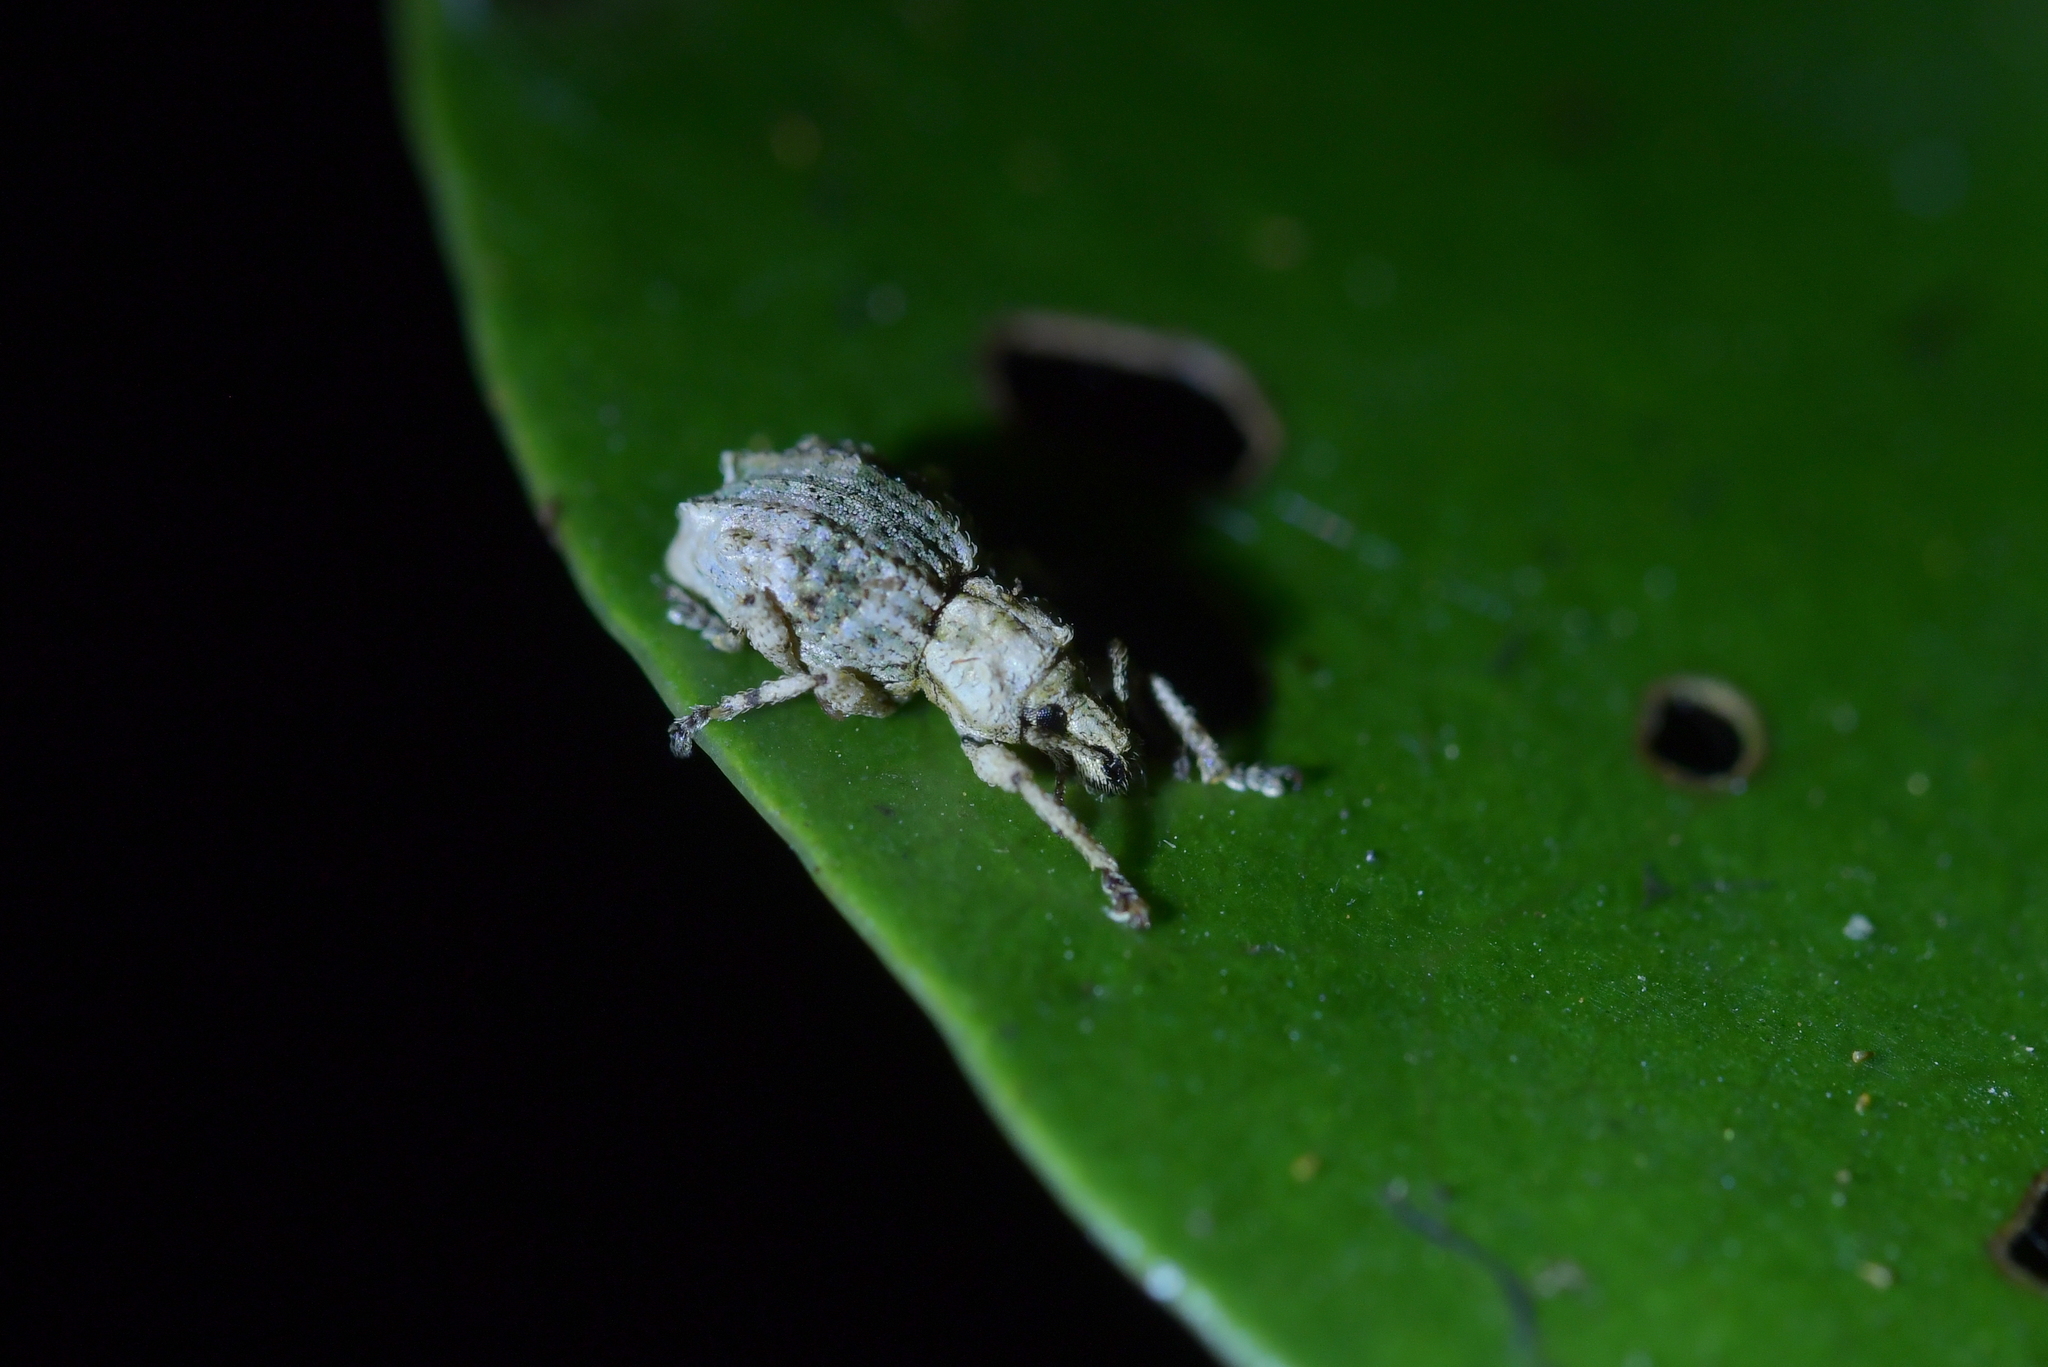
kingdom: Animalia
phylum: Arthropoda
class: Insecta
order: Coleoptera
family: Curculionidae
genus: Brachyolus
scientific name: Brachyolus punctatus
